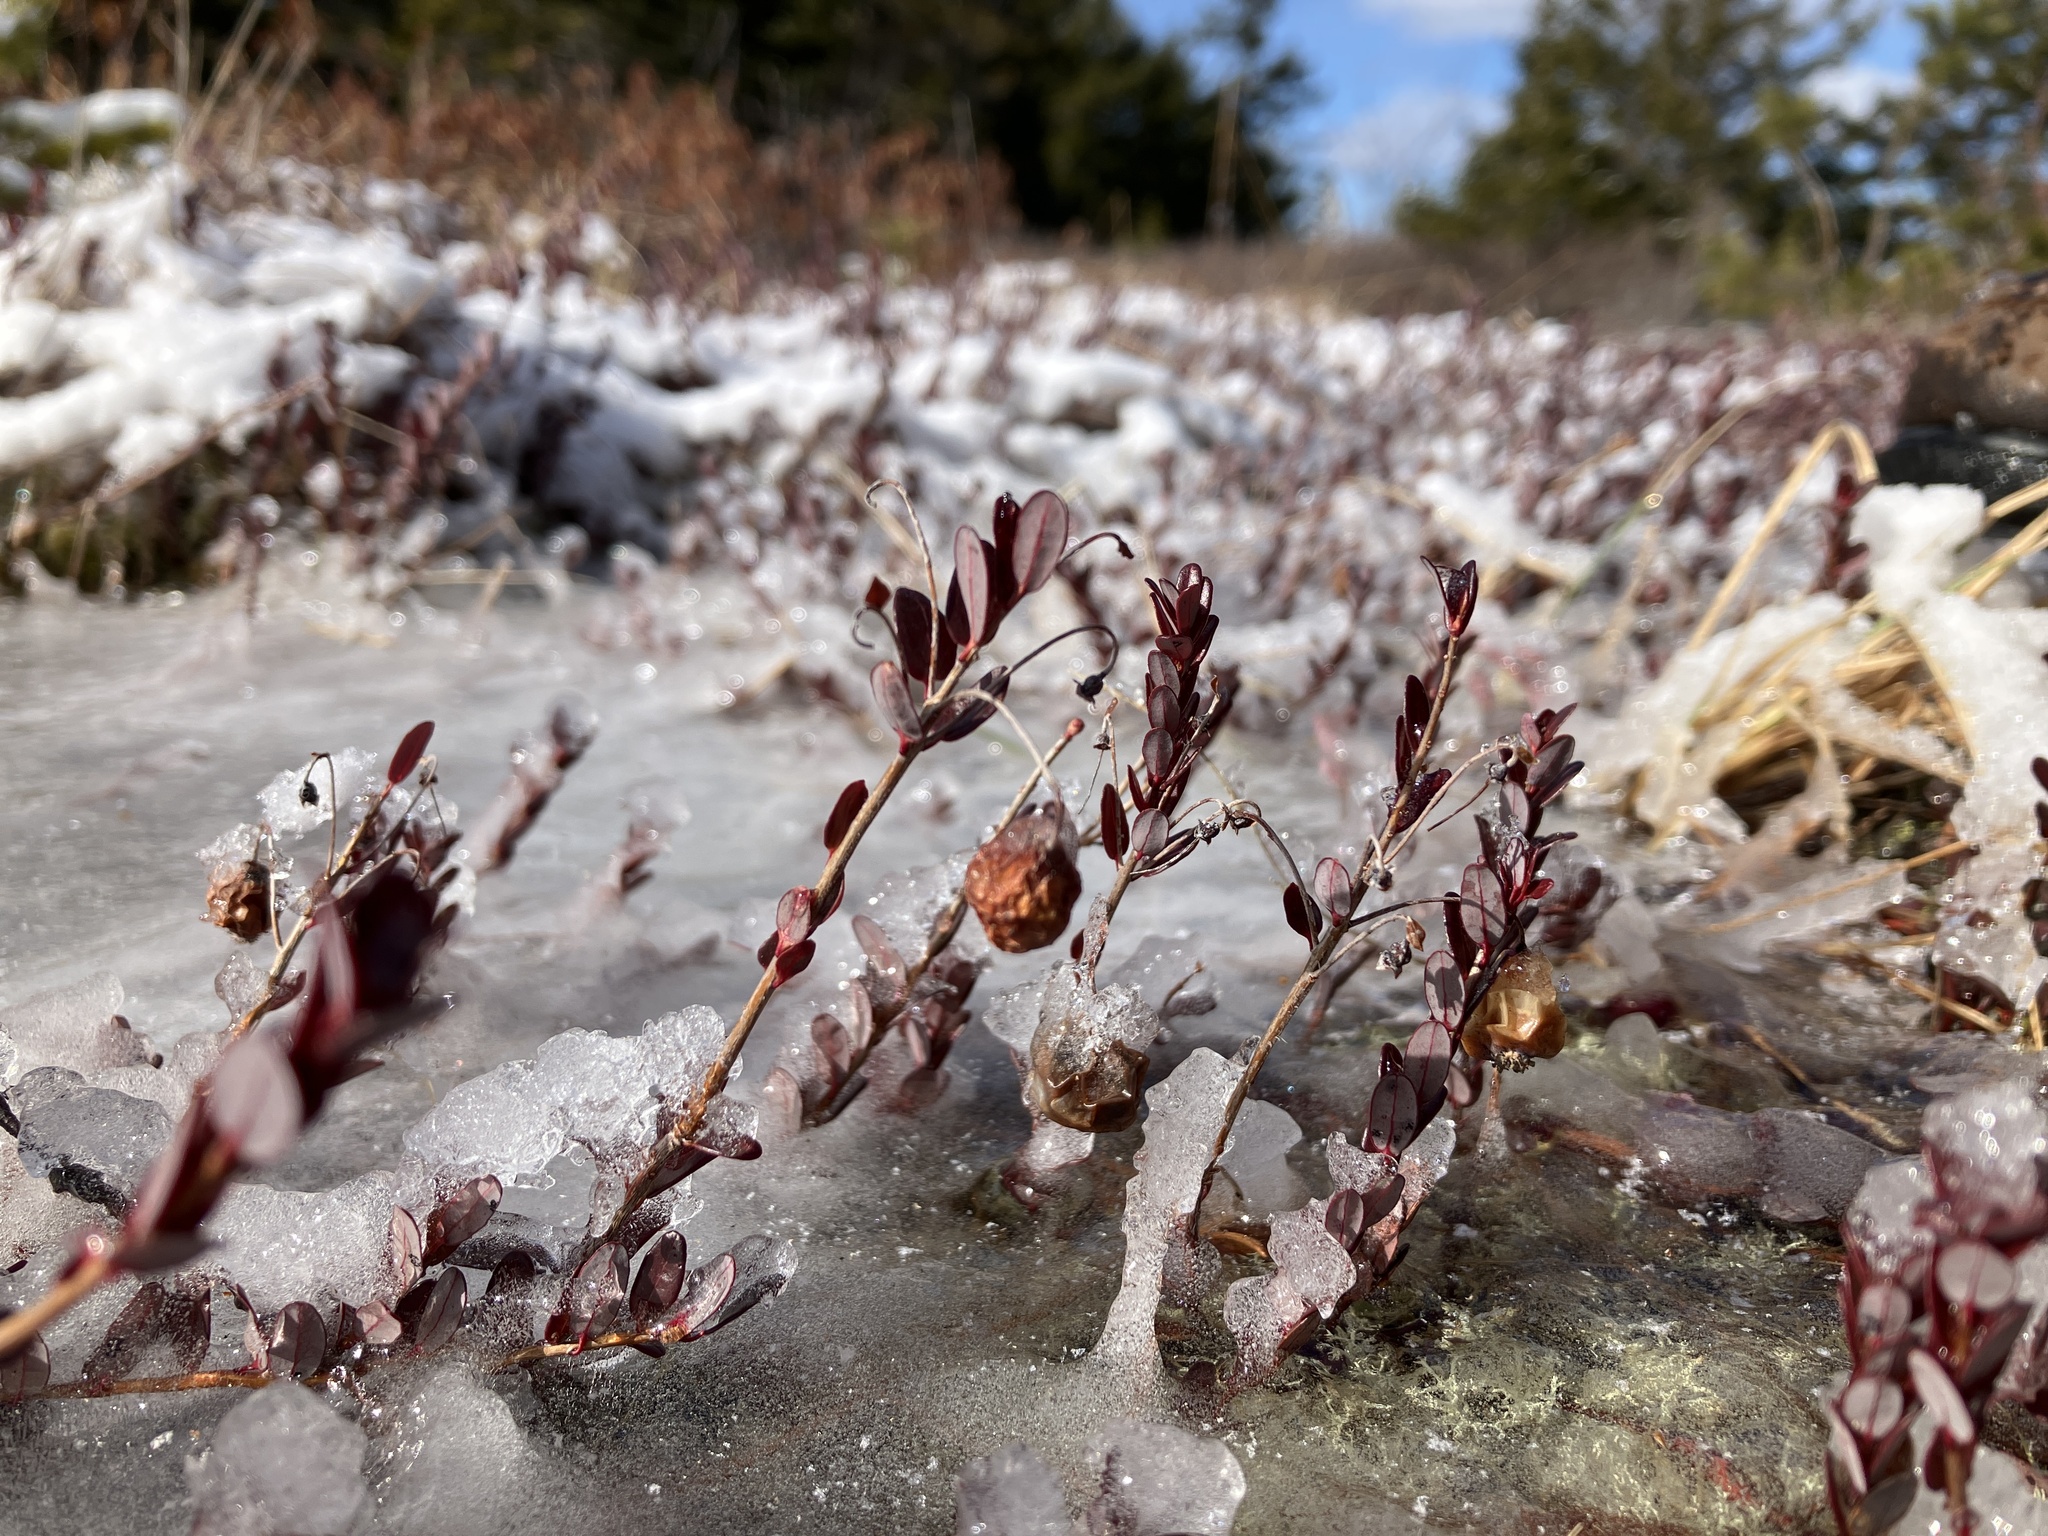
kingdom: Plantae
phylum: Tracheophyta
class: Magnoliopsida
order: Ericales
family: Ericaceae
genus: Vaccinium
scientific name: Vaccinium macrocarpon
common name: American cranberry
